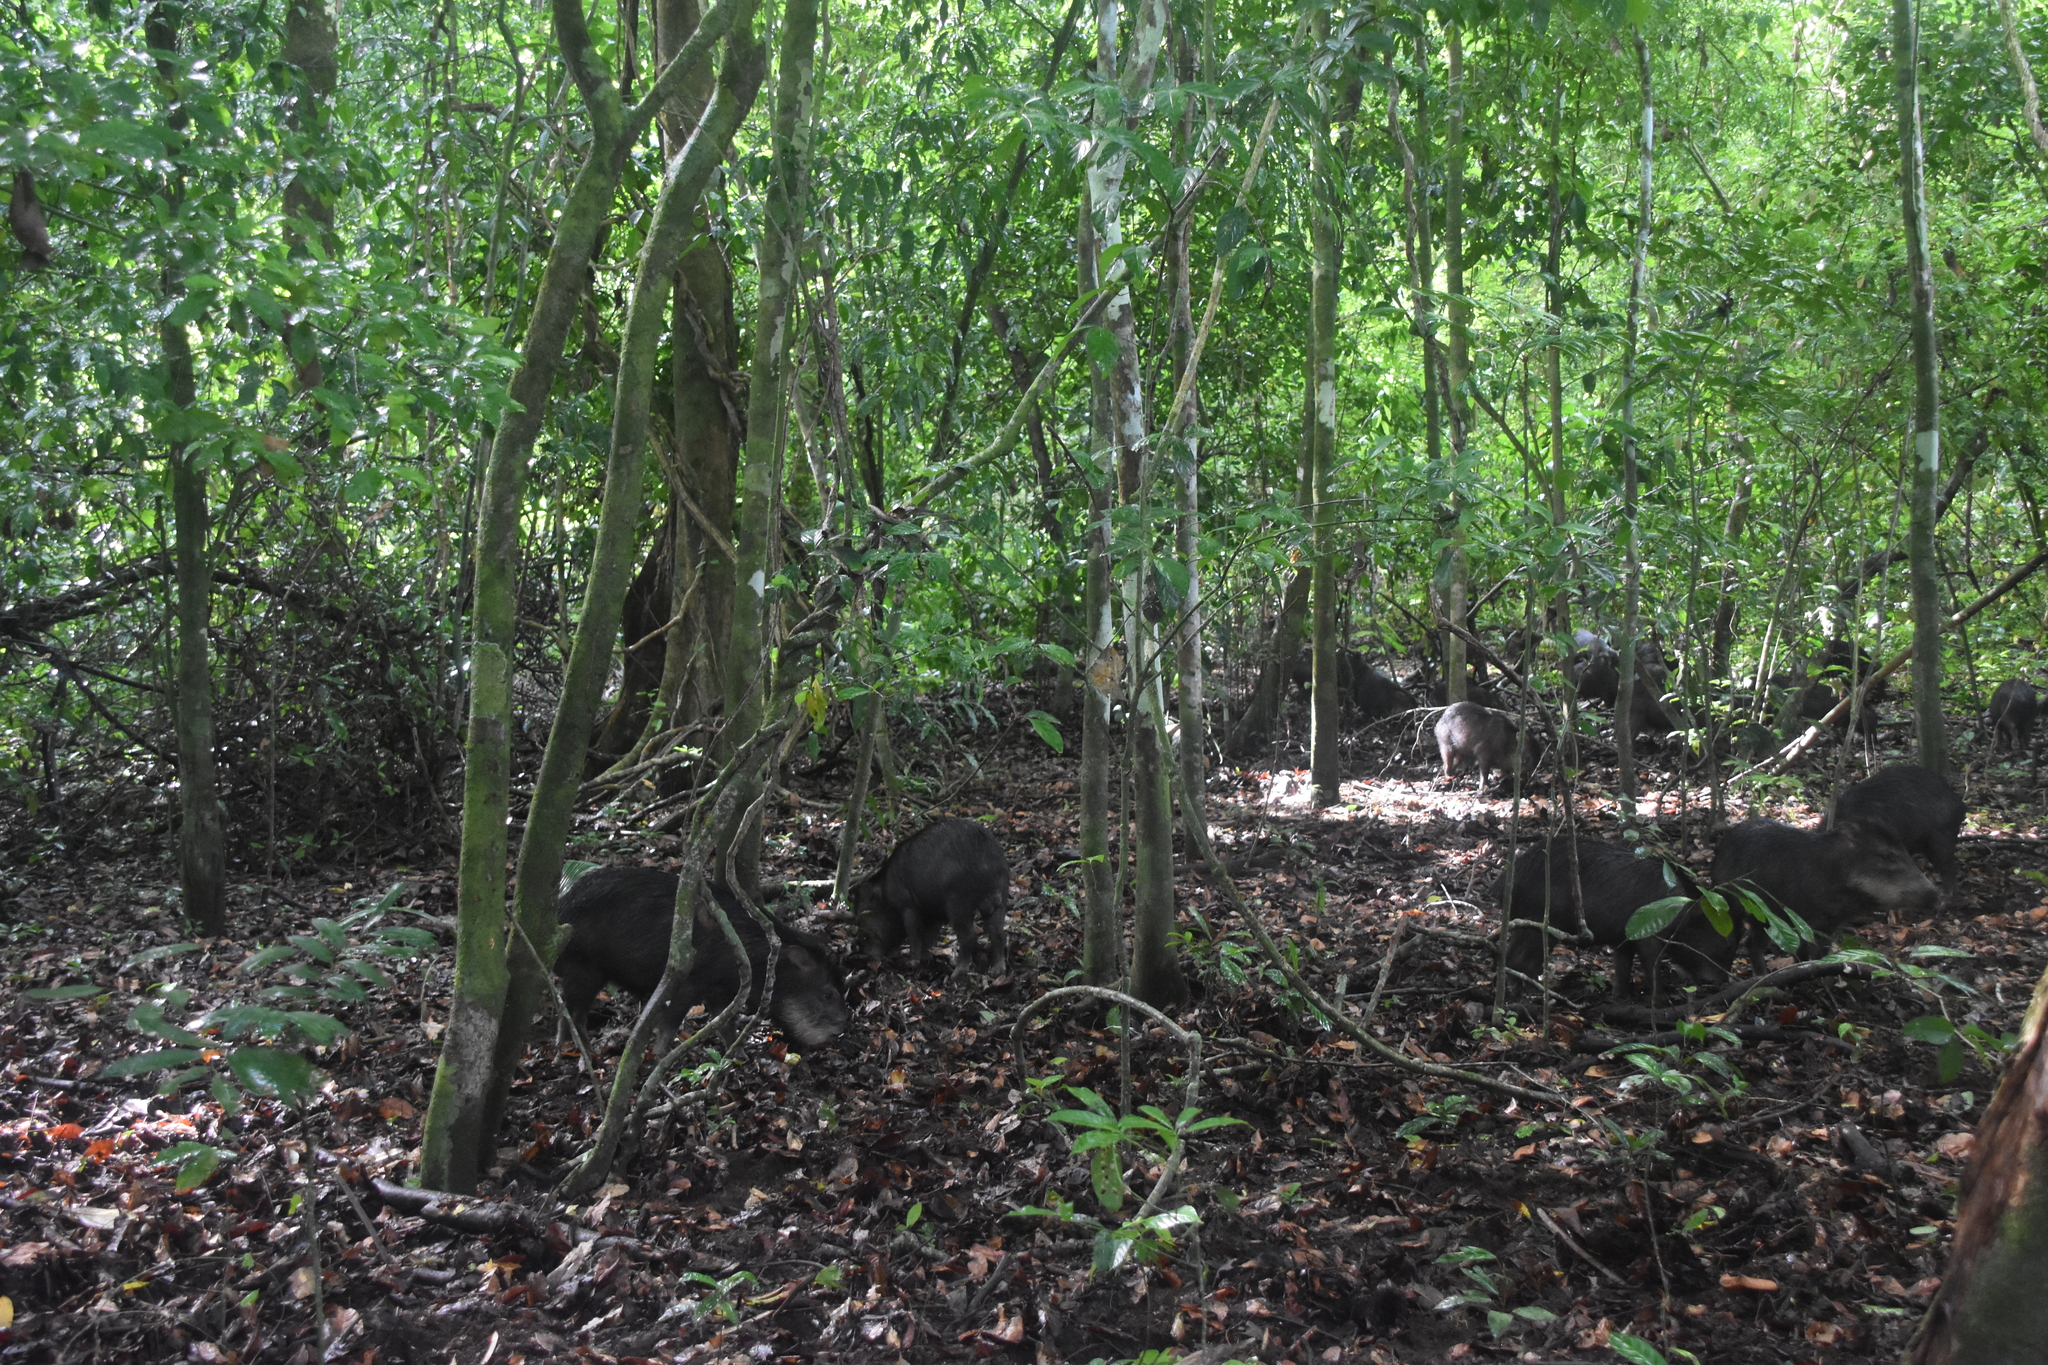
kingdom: Animalia
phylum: Chordata
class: Mammalia
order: Artiodactyla
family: Tayassuidae
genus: Tayassu
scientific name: Tayassu pecari
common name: White-lipped peccary
